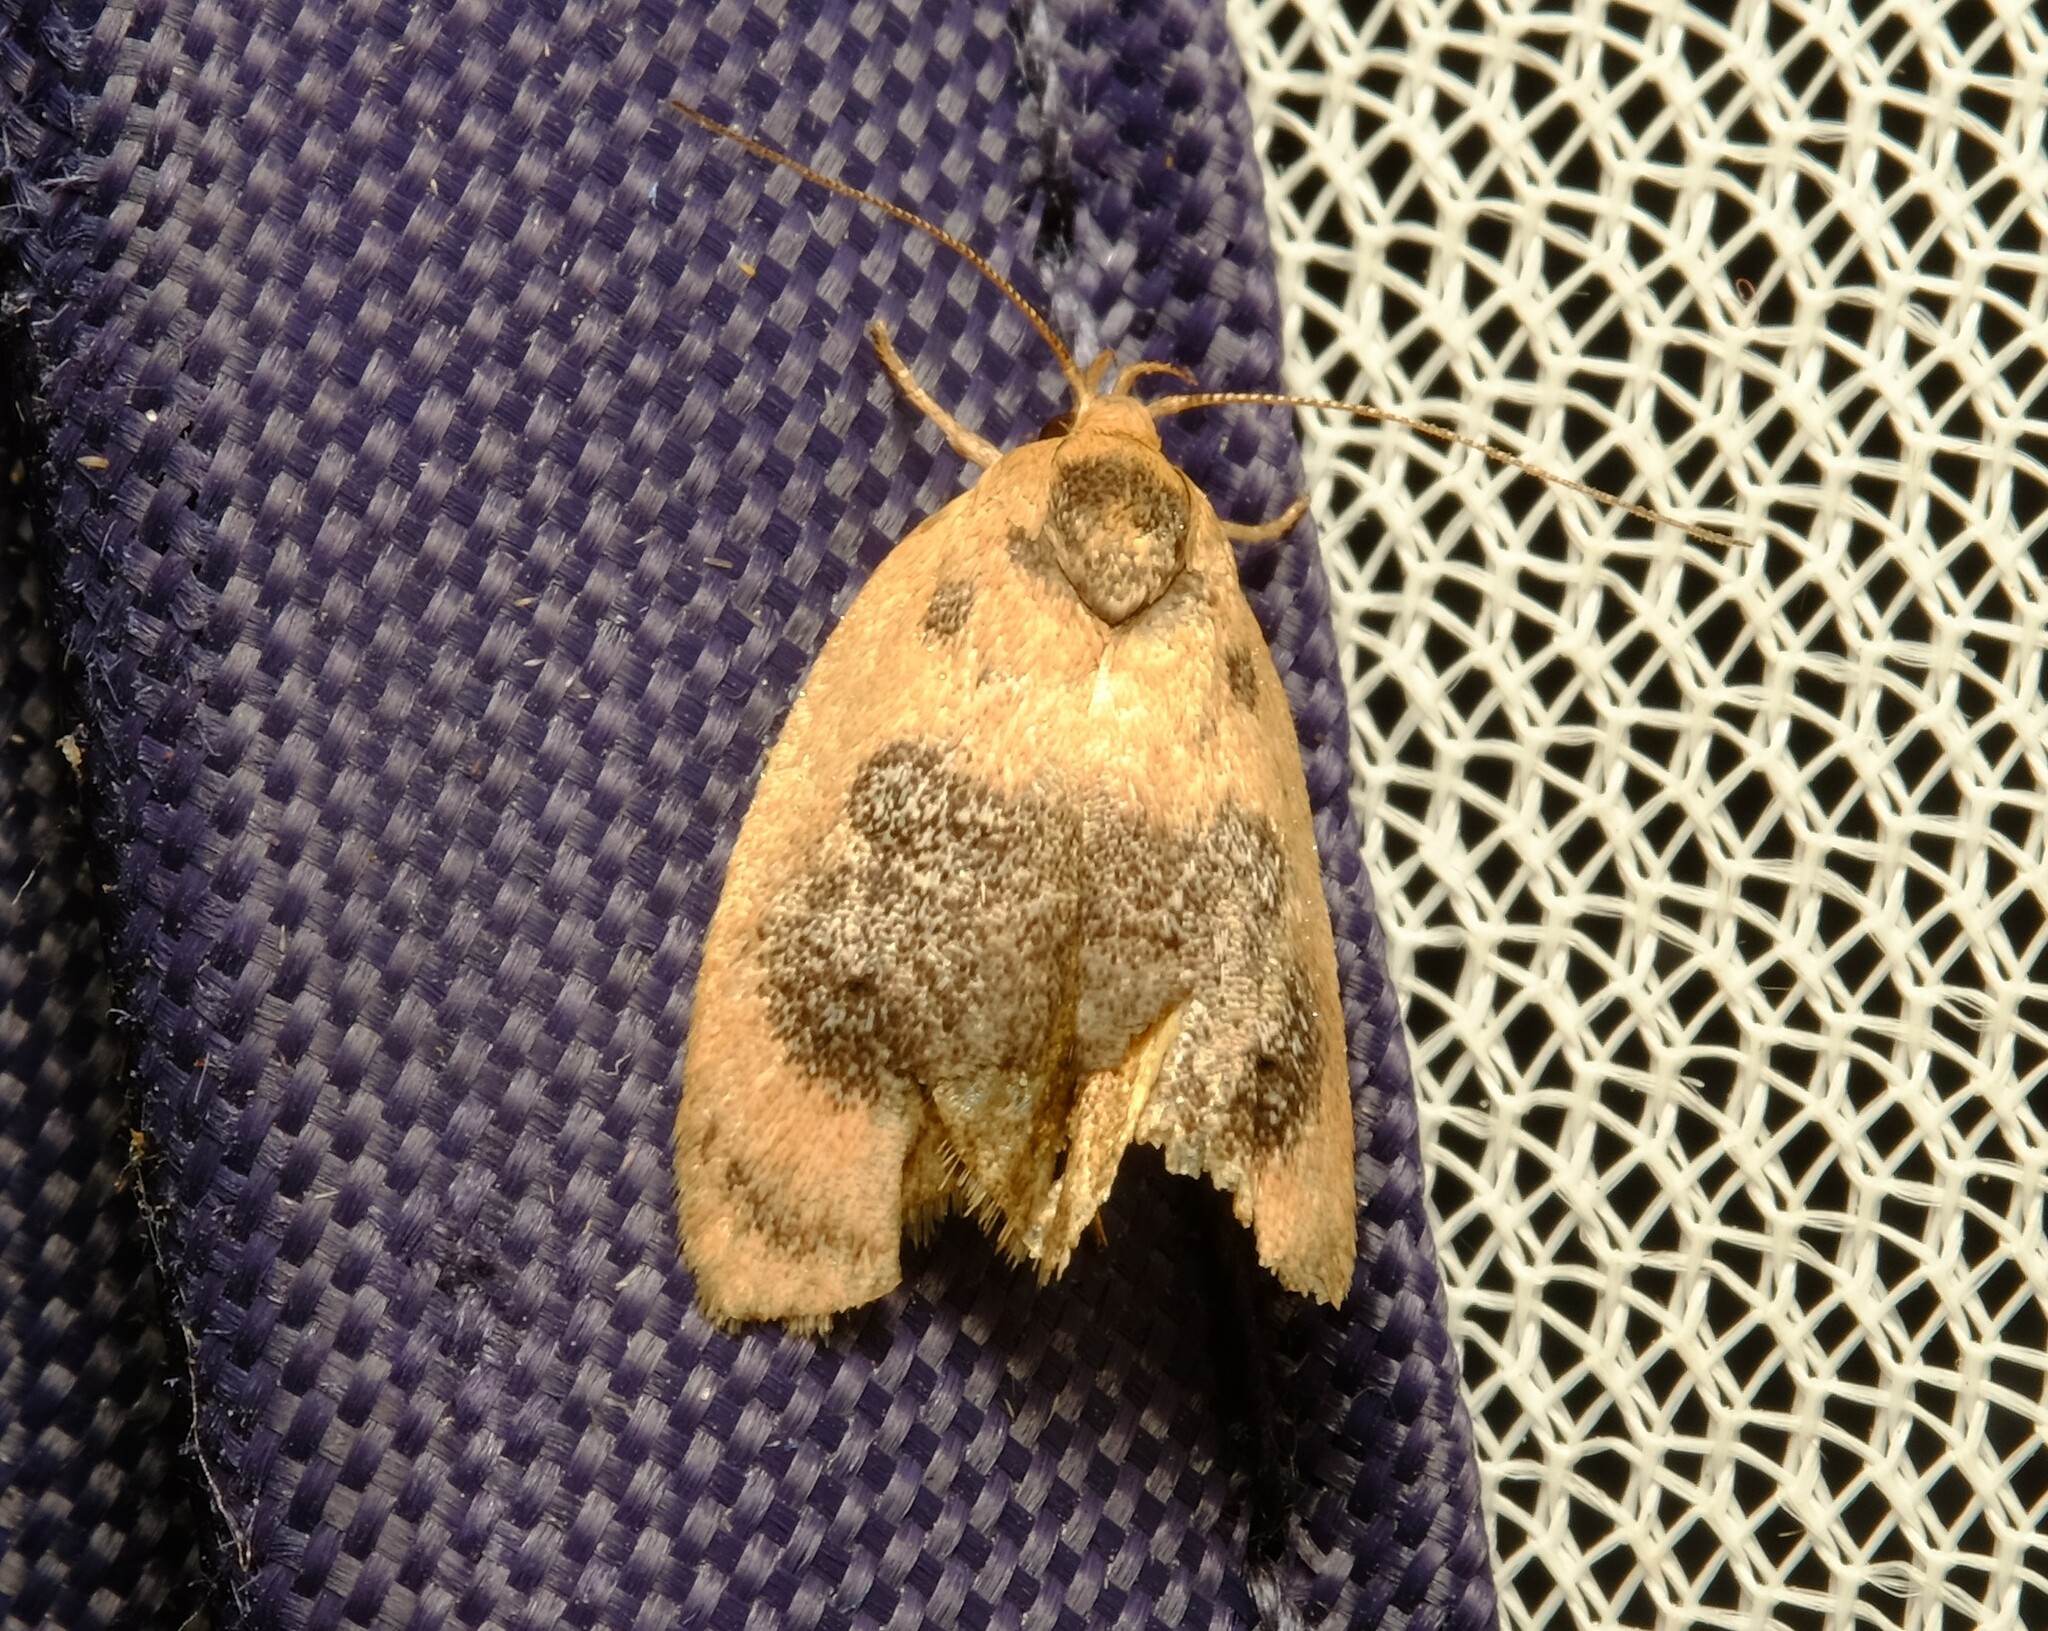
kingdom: Animalia
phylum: Arthropoda
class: Insecta
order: Lepidoptera
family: Oecophoridae
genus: Garrha
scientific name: Garrha ocellifera
